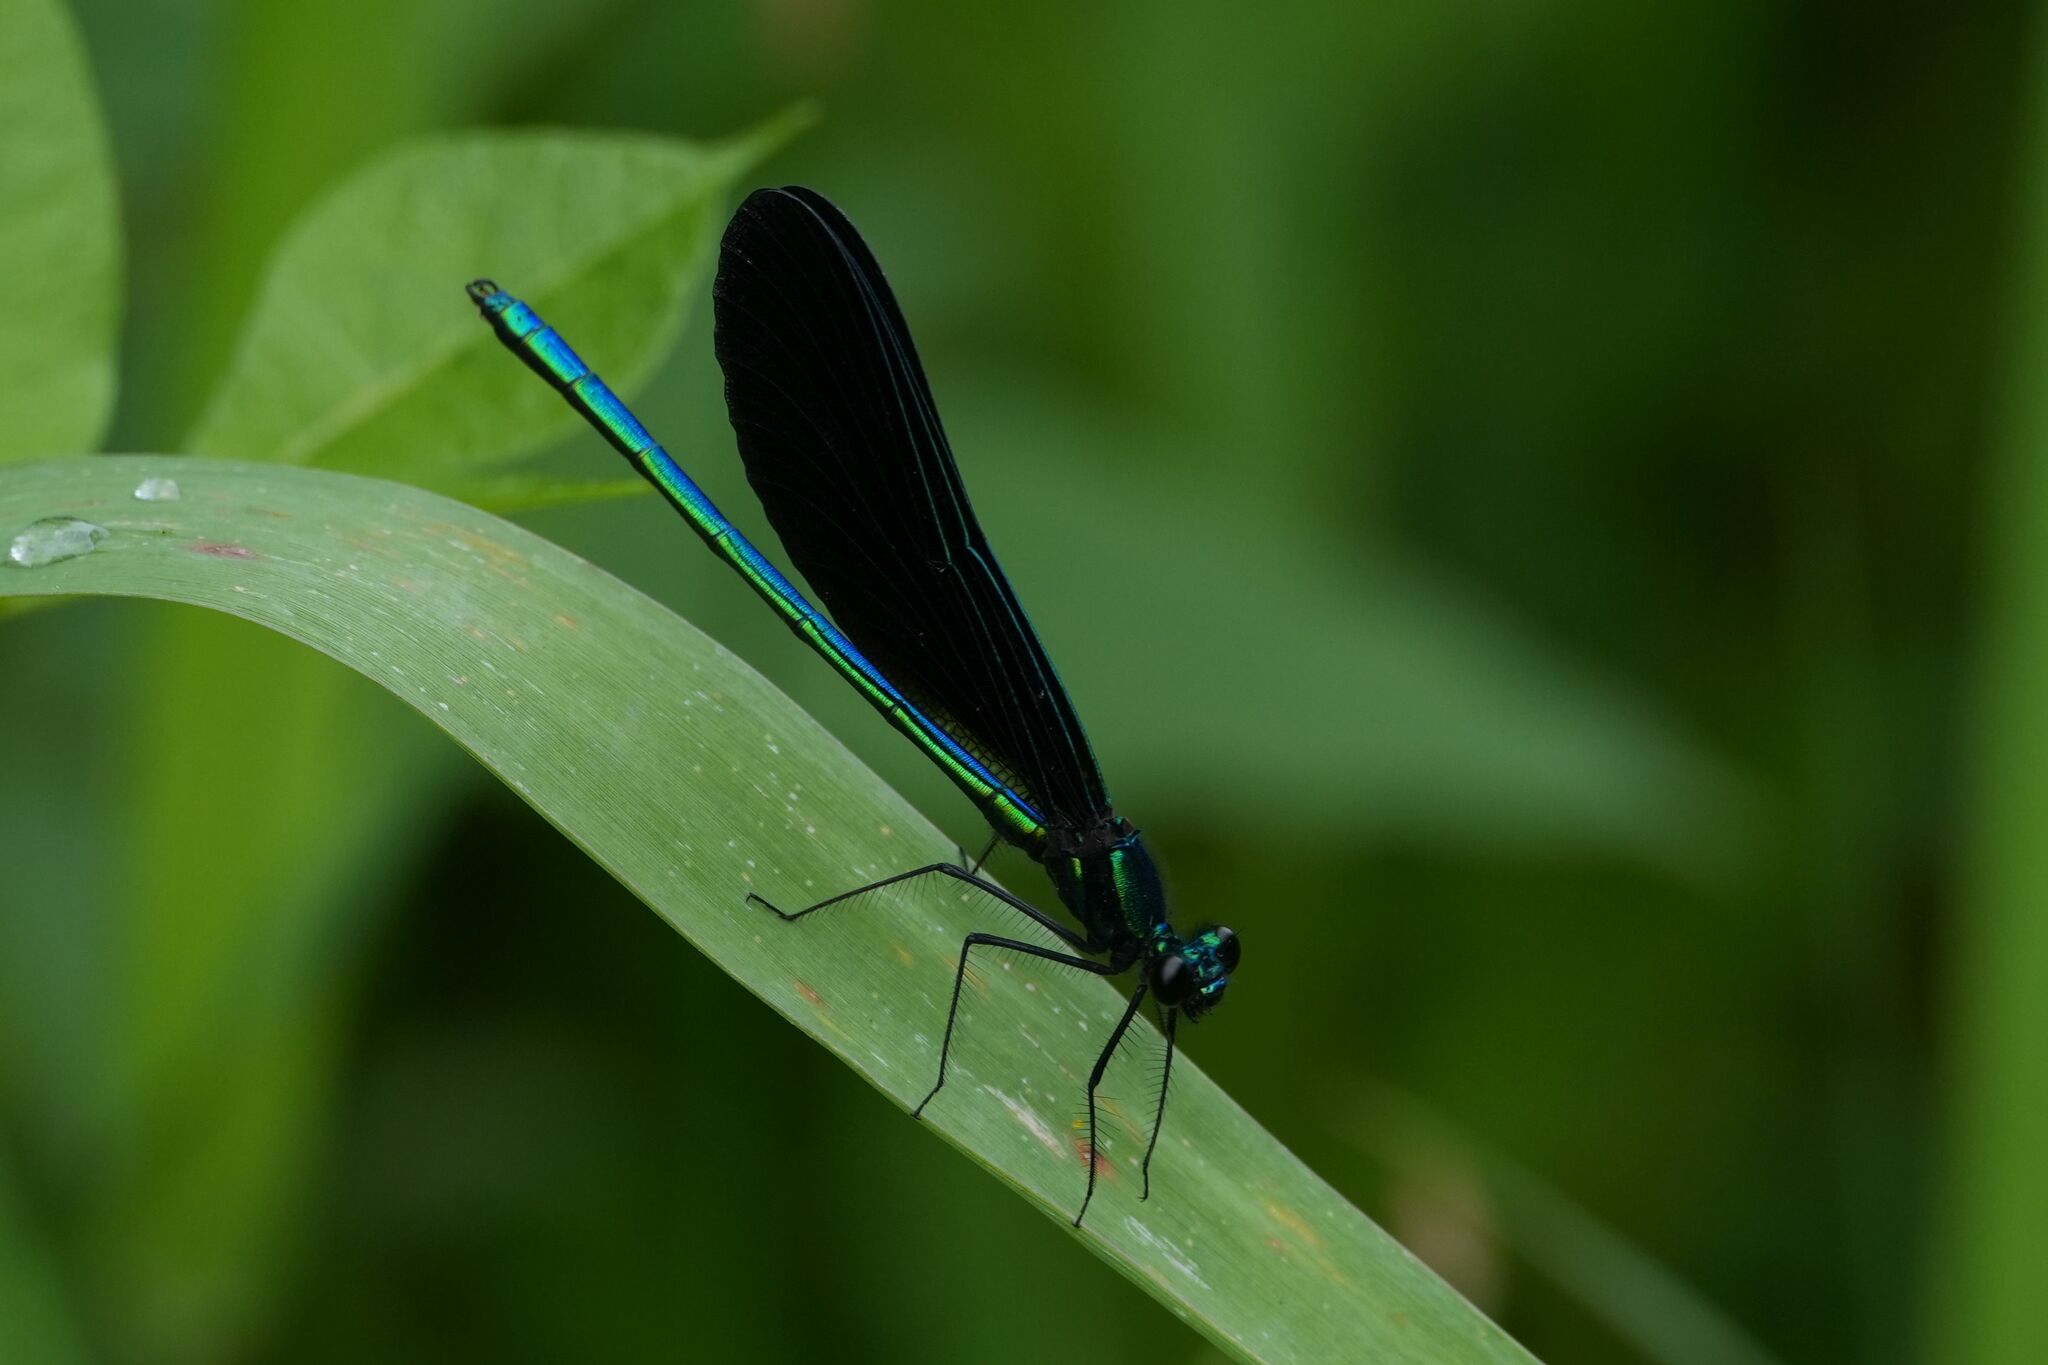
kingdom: Animalia
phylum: Arthropoda
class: Insecta
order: Odonata
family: Calopterygidae
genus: Calopteryx
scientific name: Calopteryx maculata
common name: Ebony jewelwing
